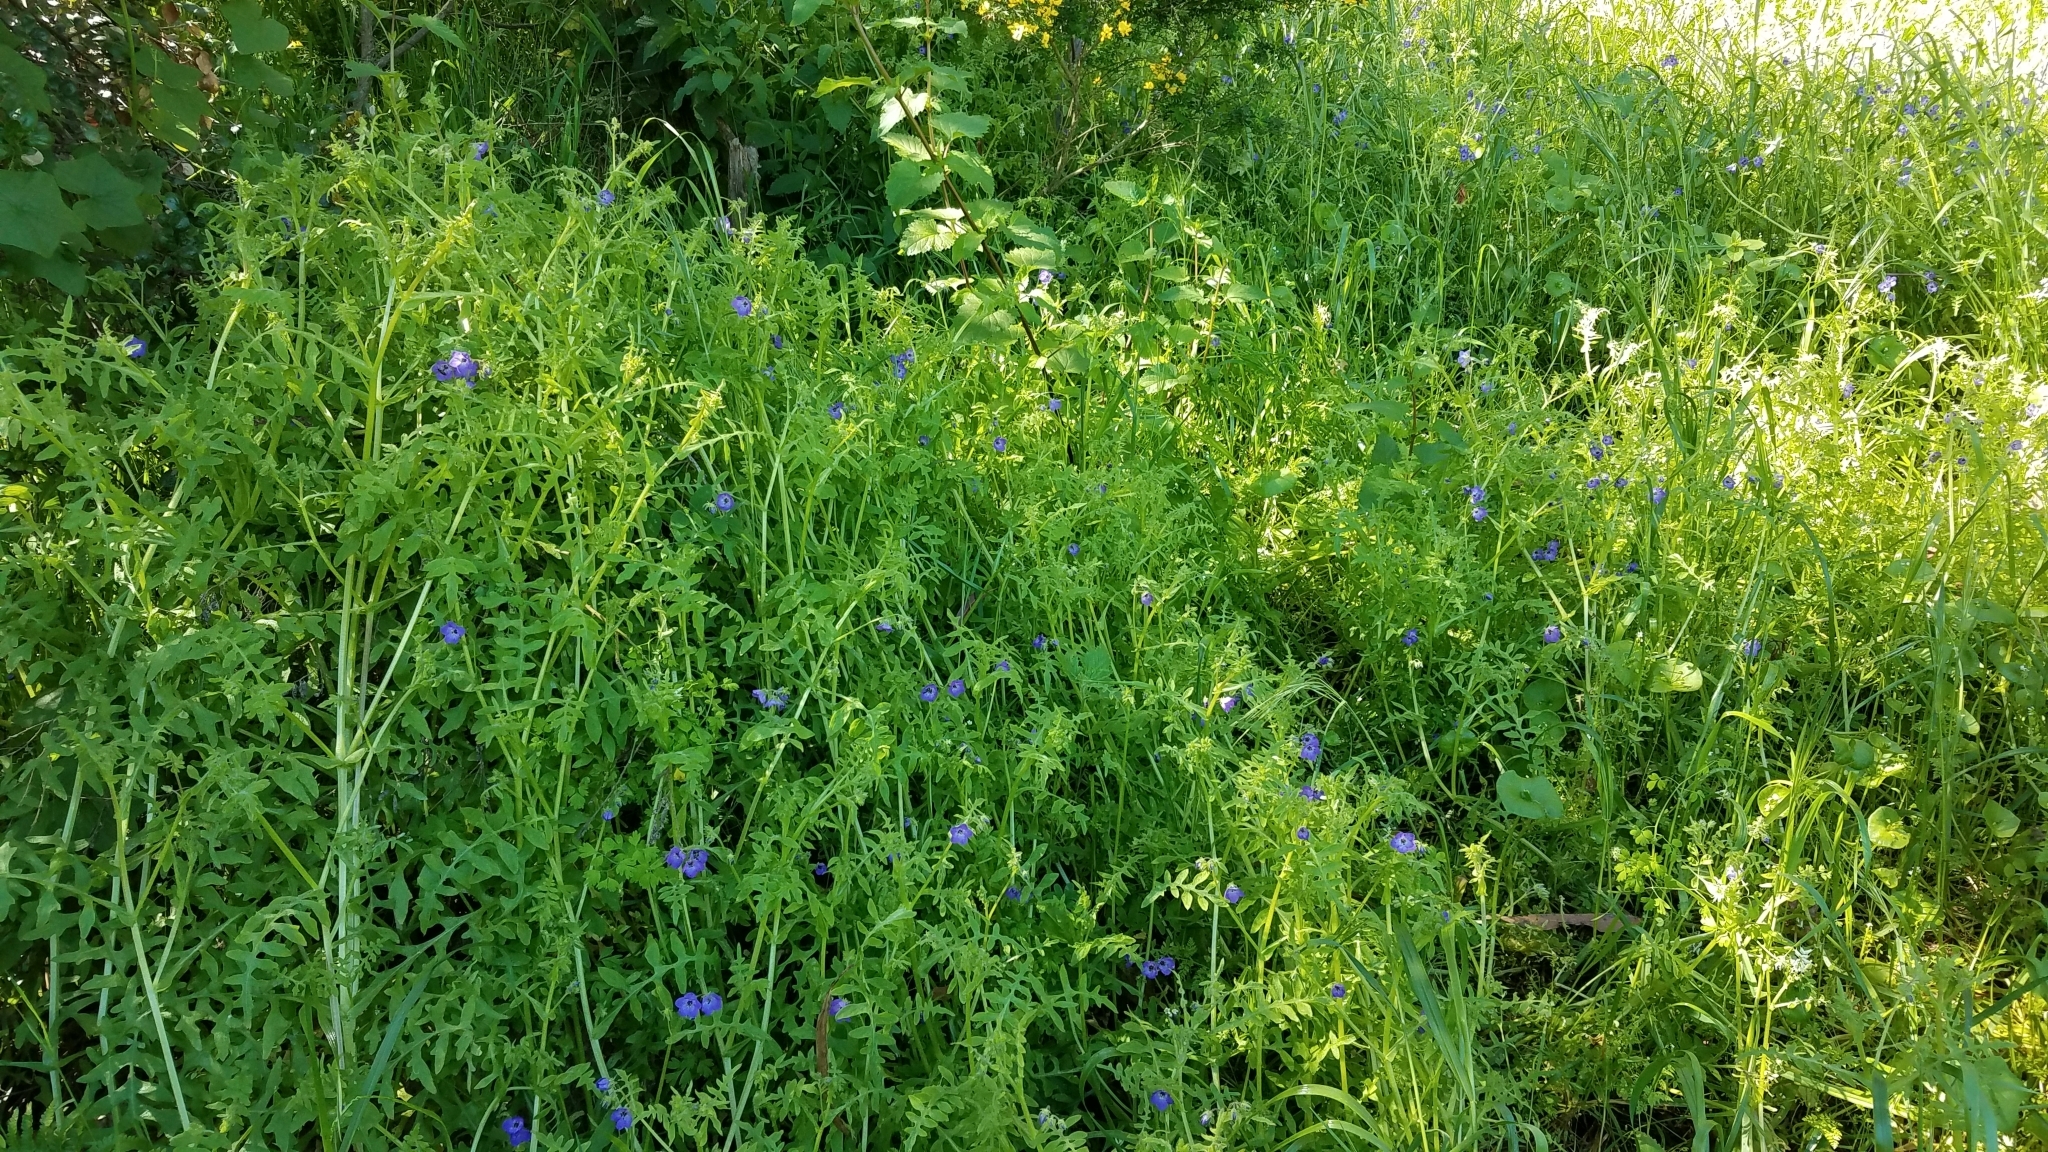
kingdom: Plantae
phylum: Tracheophyta
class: Magnoliopsida
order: Boraginales
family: Hydrophyllaceae
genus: Pholistoma
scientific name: Pholistoma auritum
